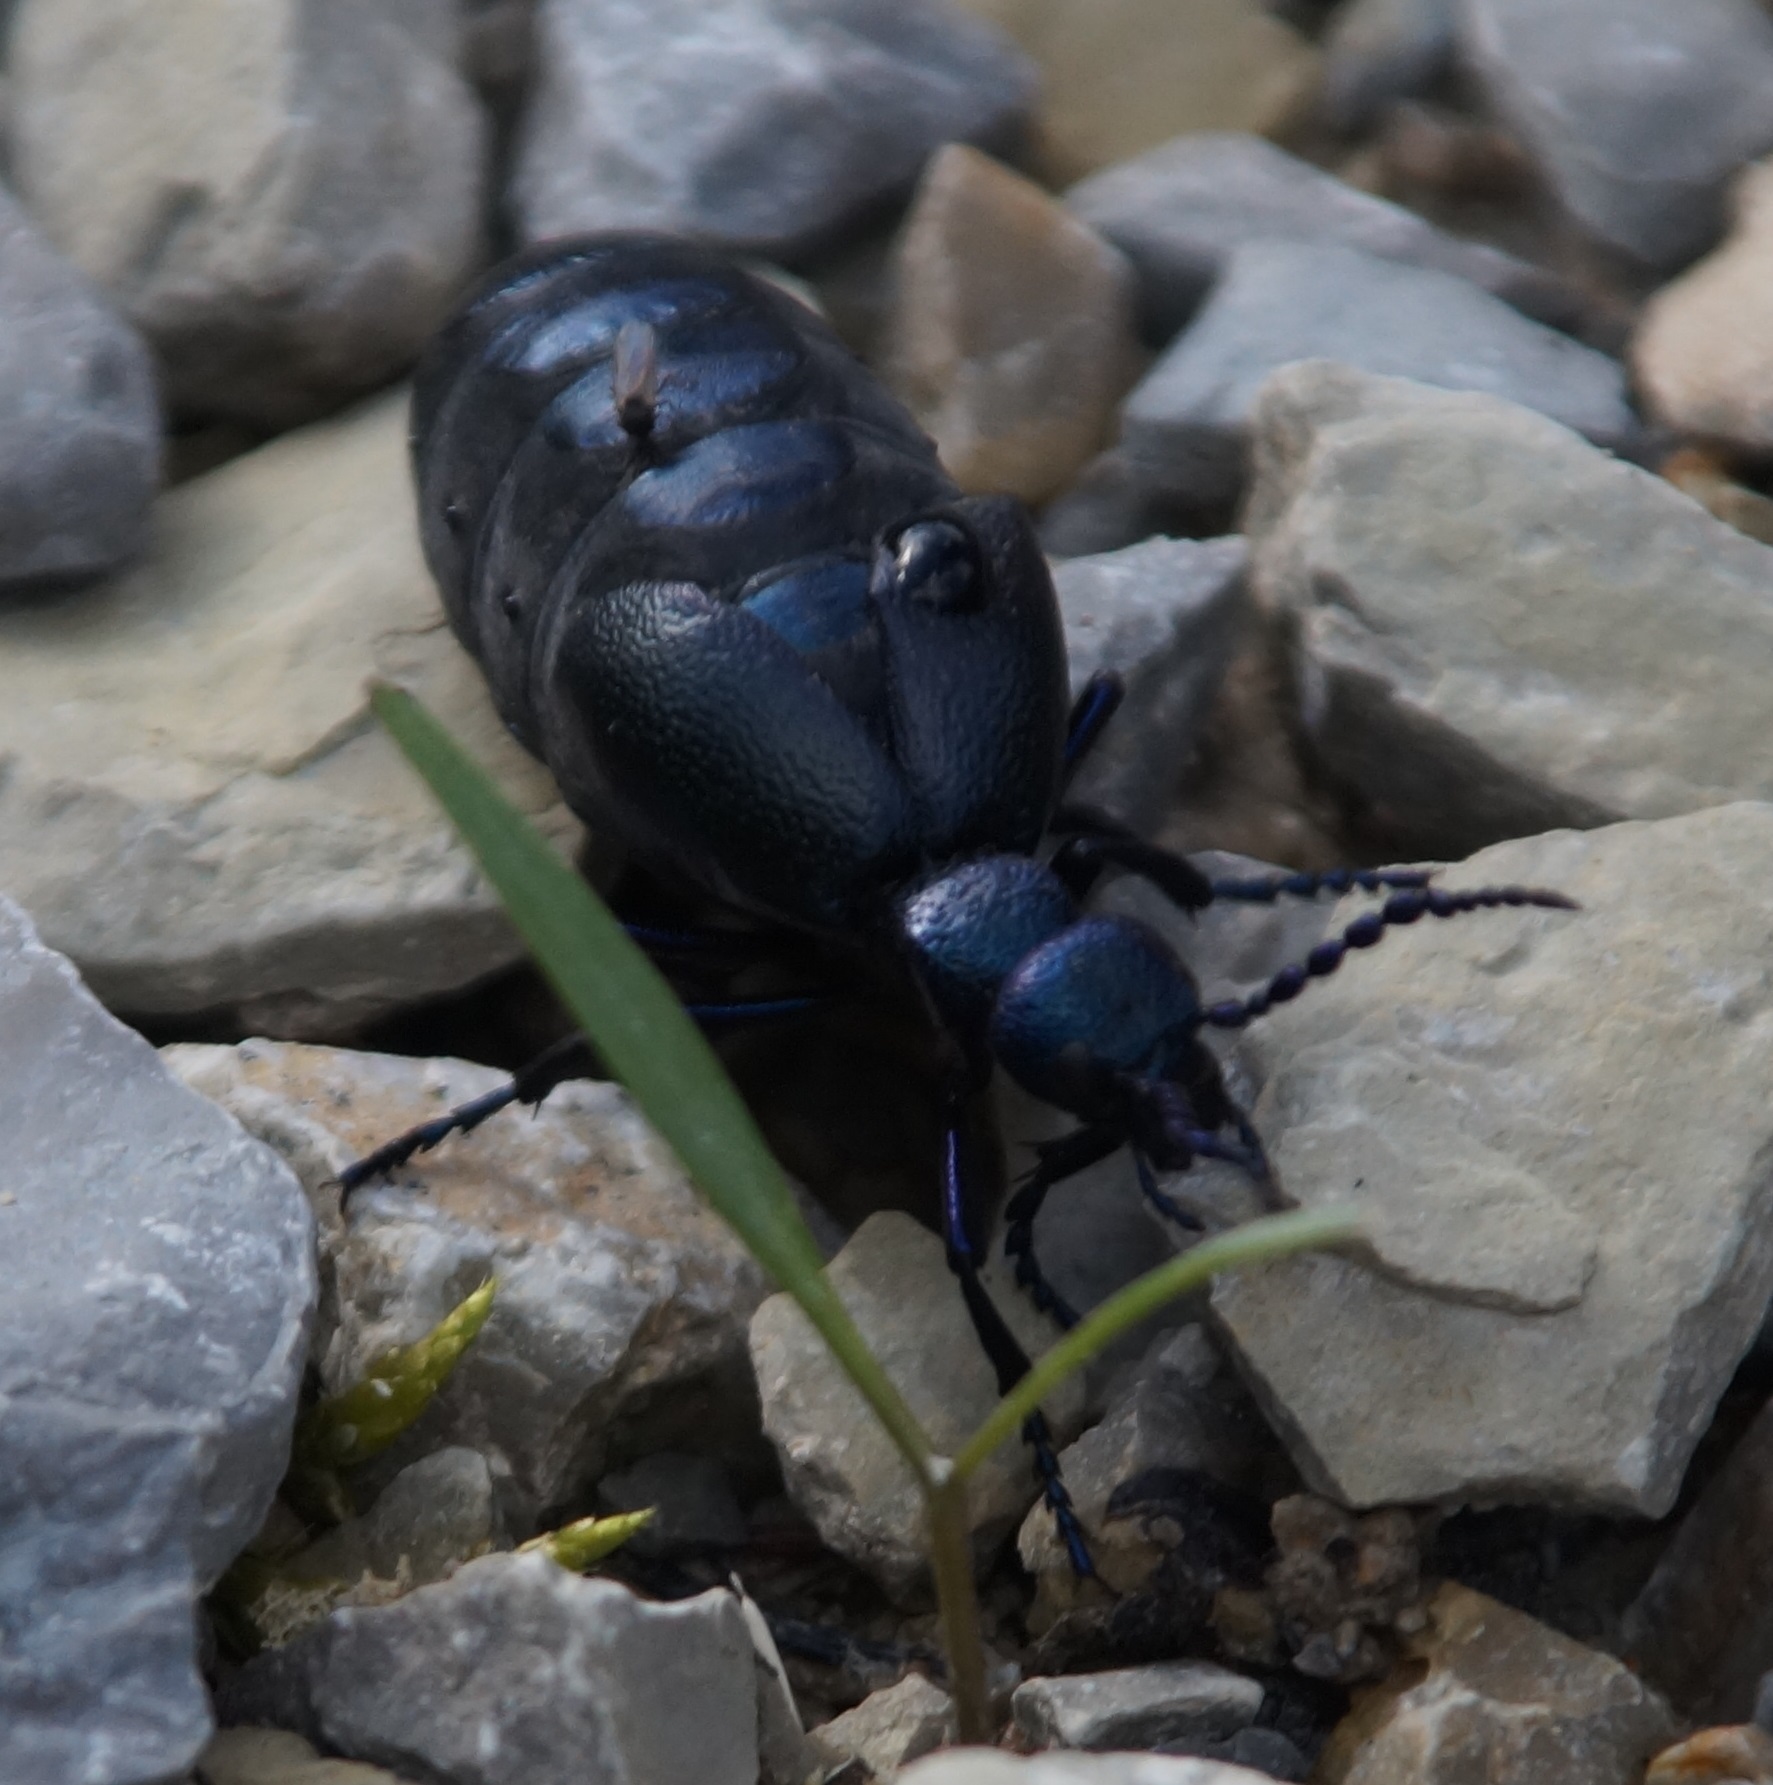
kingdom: Animalia
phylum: Arthropoda
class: Insecta
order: Coleoptera
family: Meloidae
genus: Meloe
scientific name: Meloe proscarabaeus
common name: Black oil-beetle
